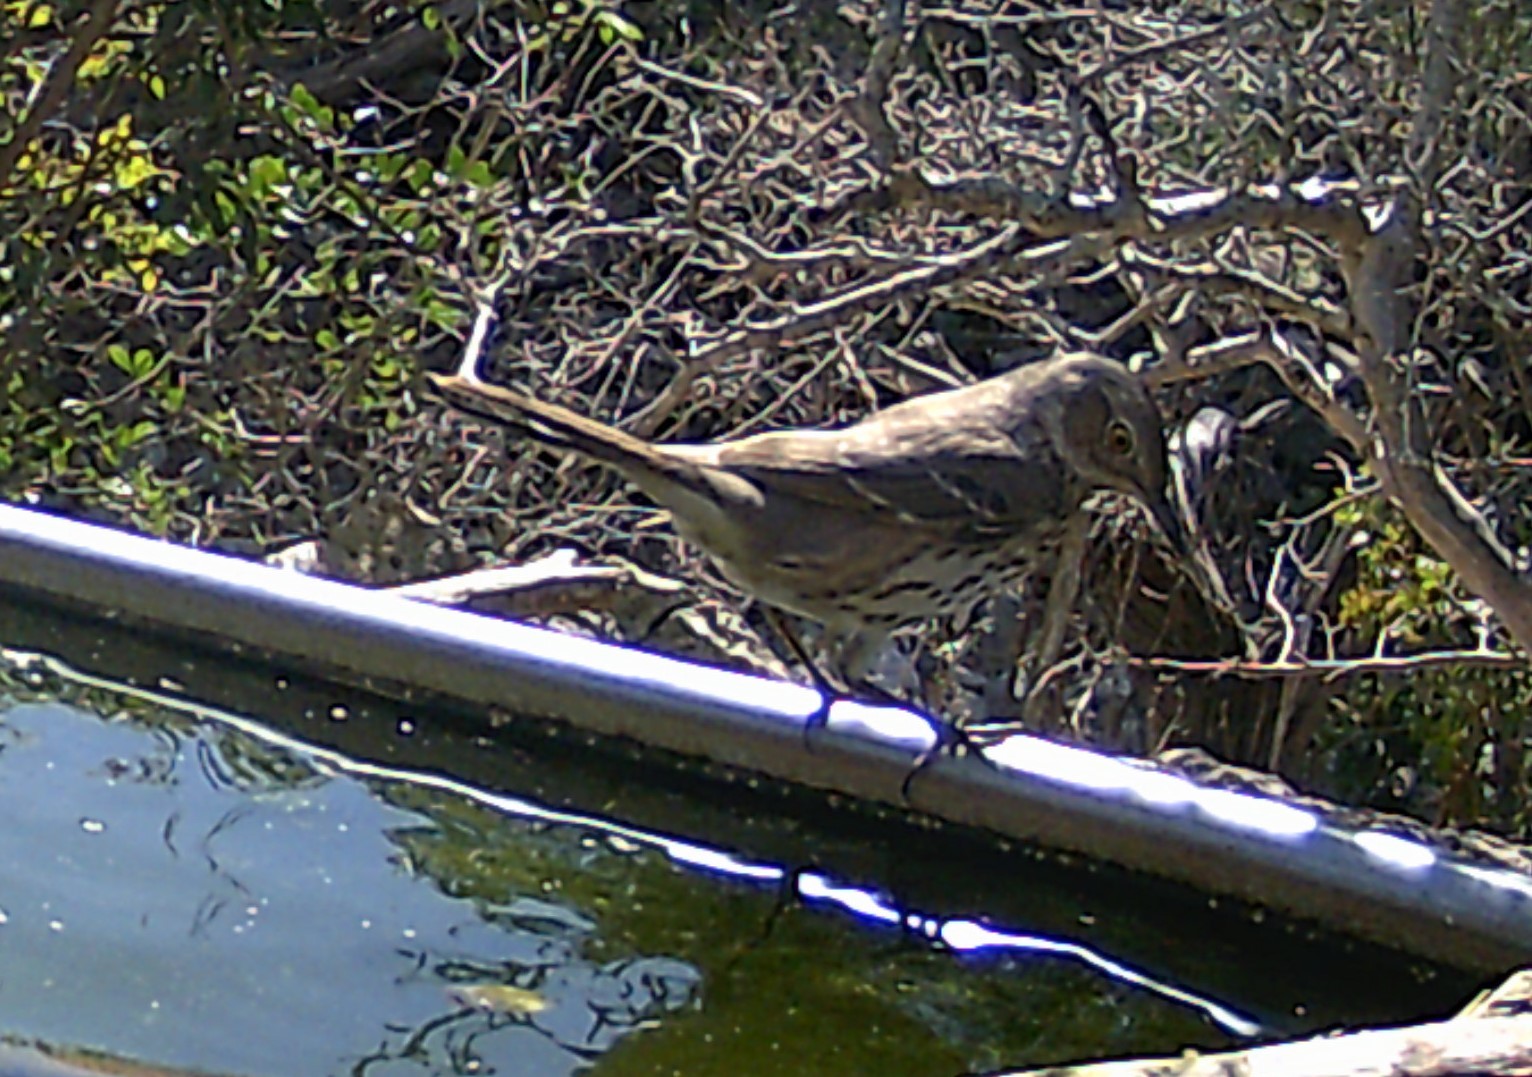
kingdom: Animalia
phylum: Chordata
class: Aves
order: Passeriformes
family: Mimidae
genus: Oreoscoptes
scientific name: Oreoscoptes montanus
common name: Sage thrasher
